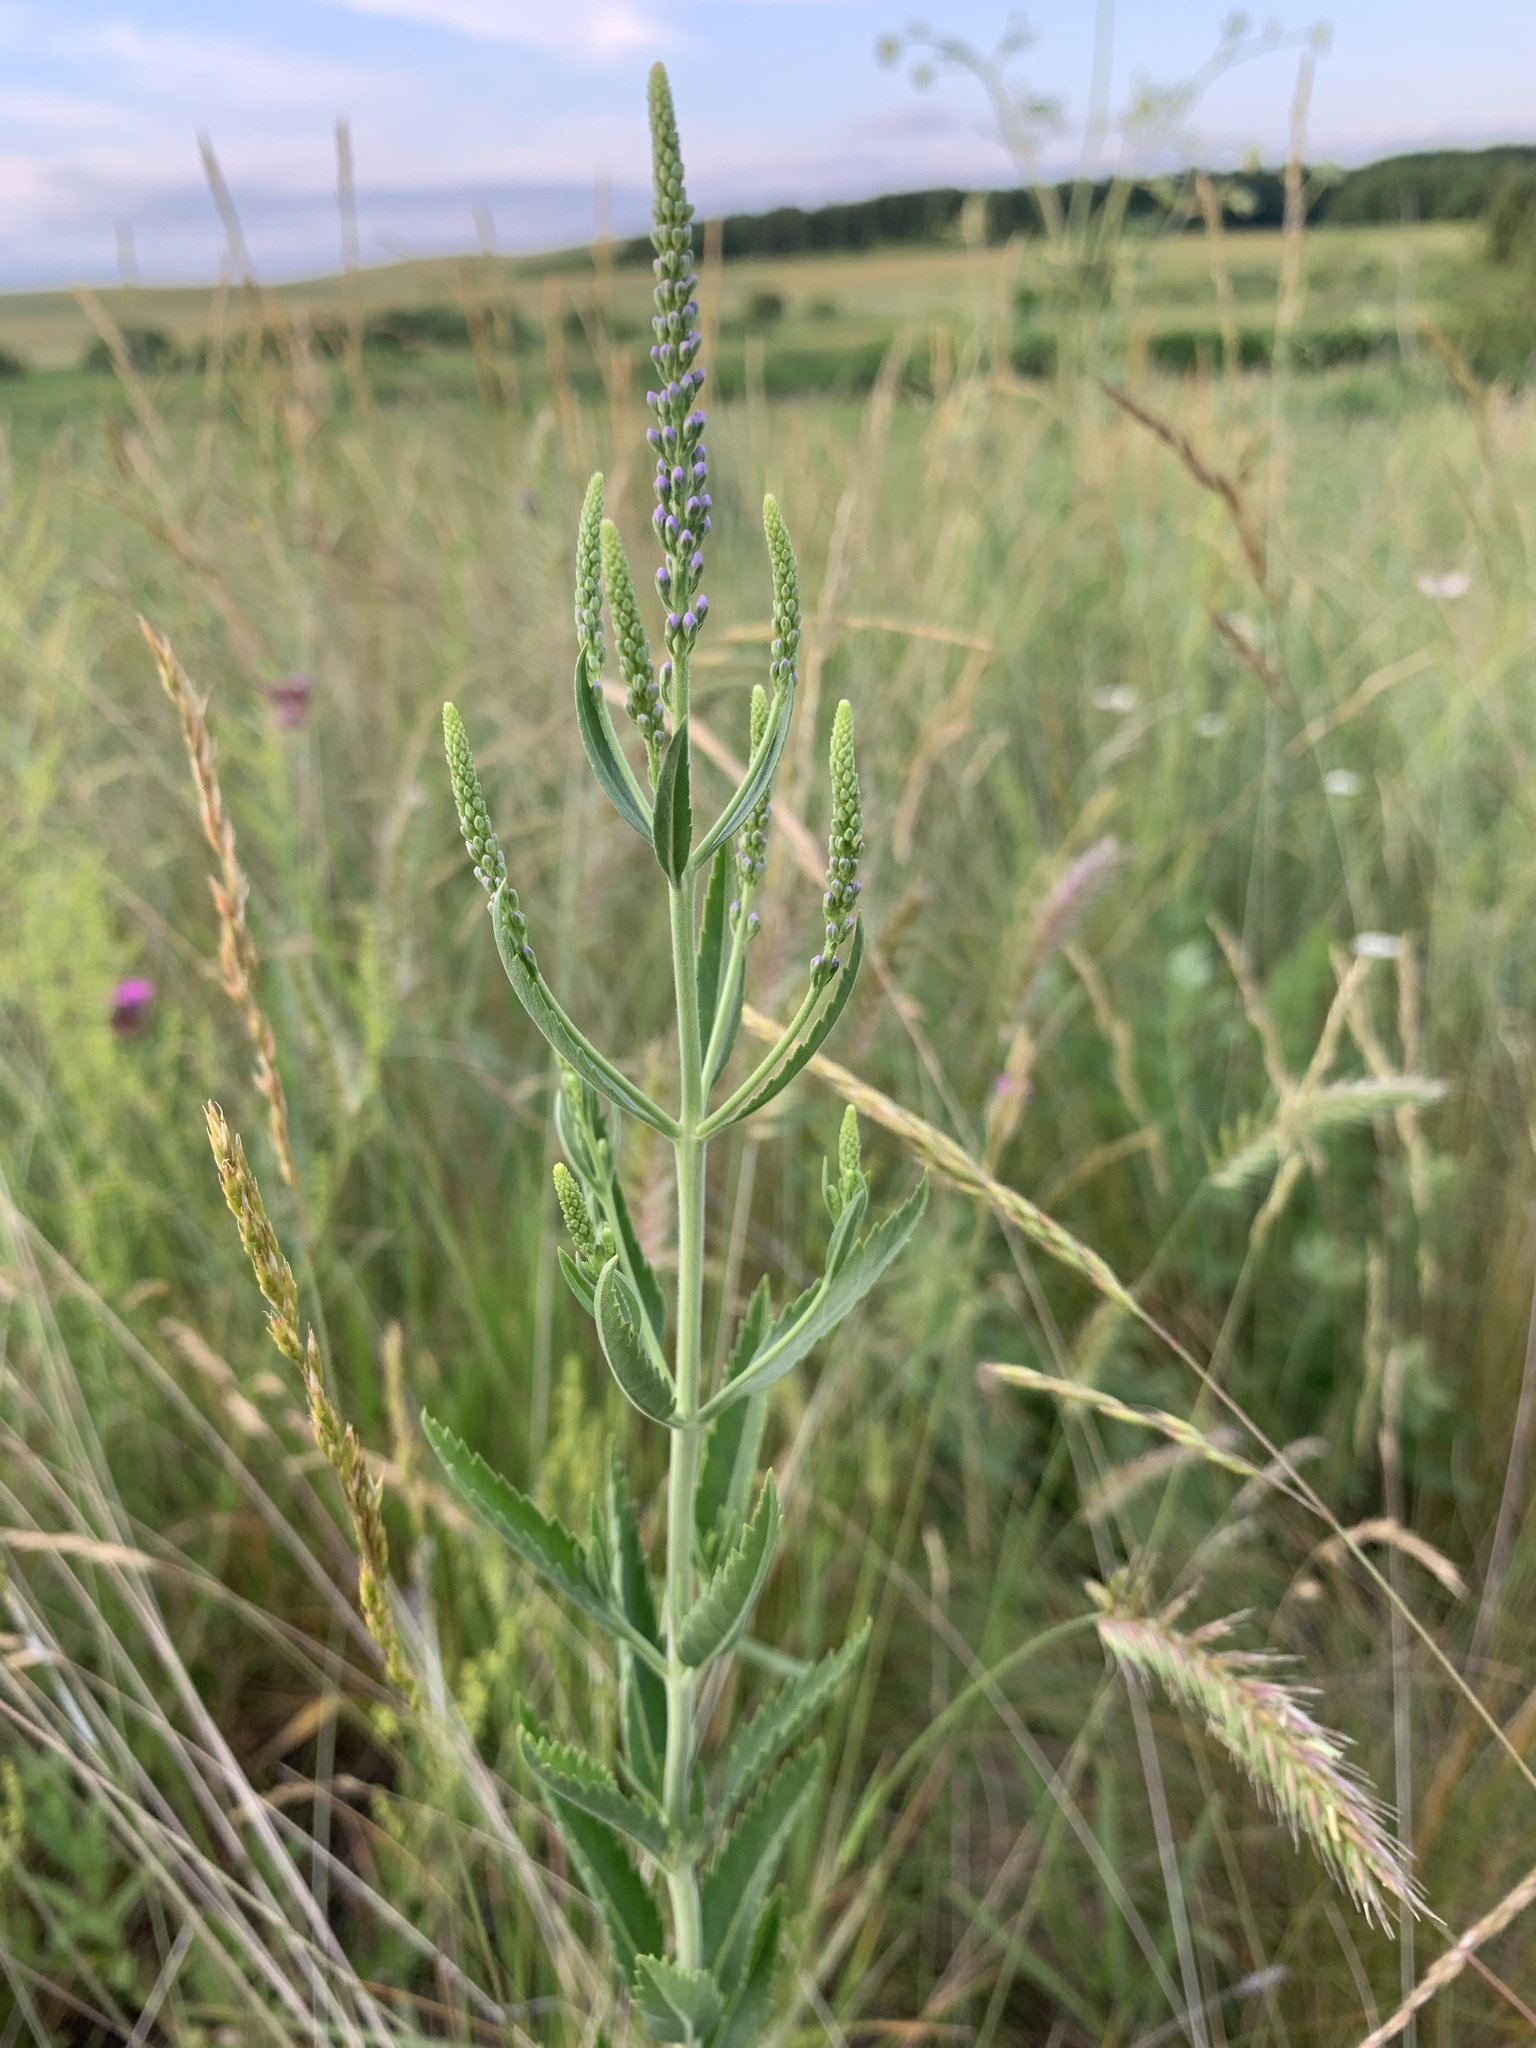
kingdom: Plantae
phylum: Tracheophyta
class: Magnoliopsida
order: Lamiales
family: Plantaginaceae
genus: Veronica
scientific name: Veronica spuria
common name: Bastard speedwell
